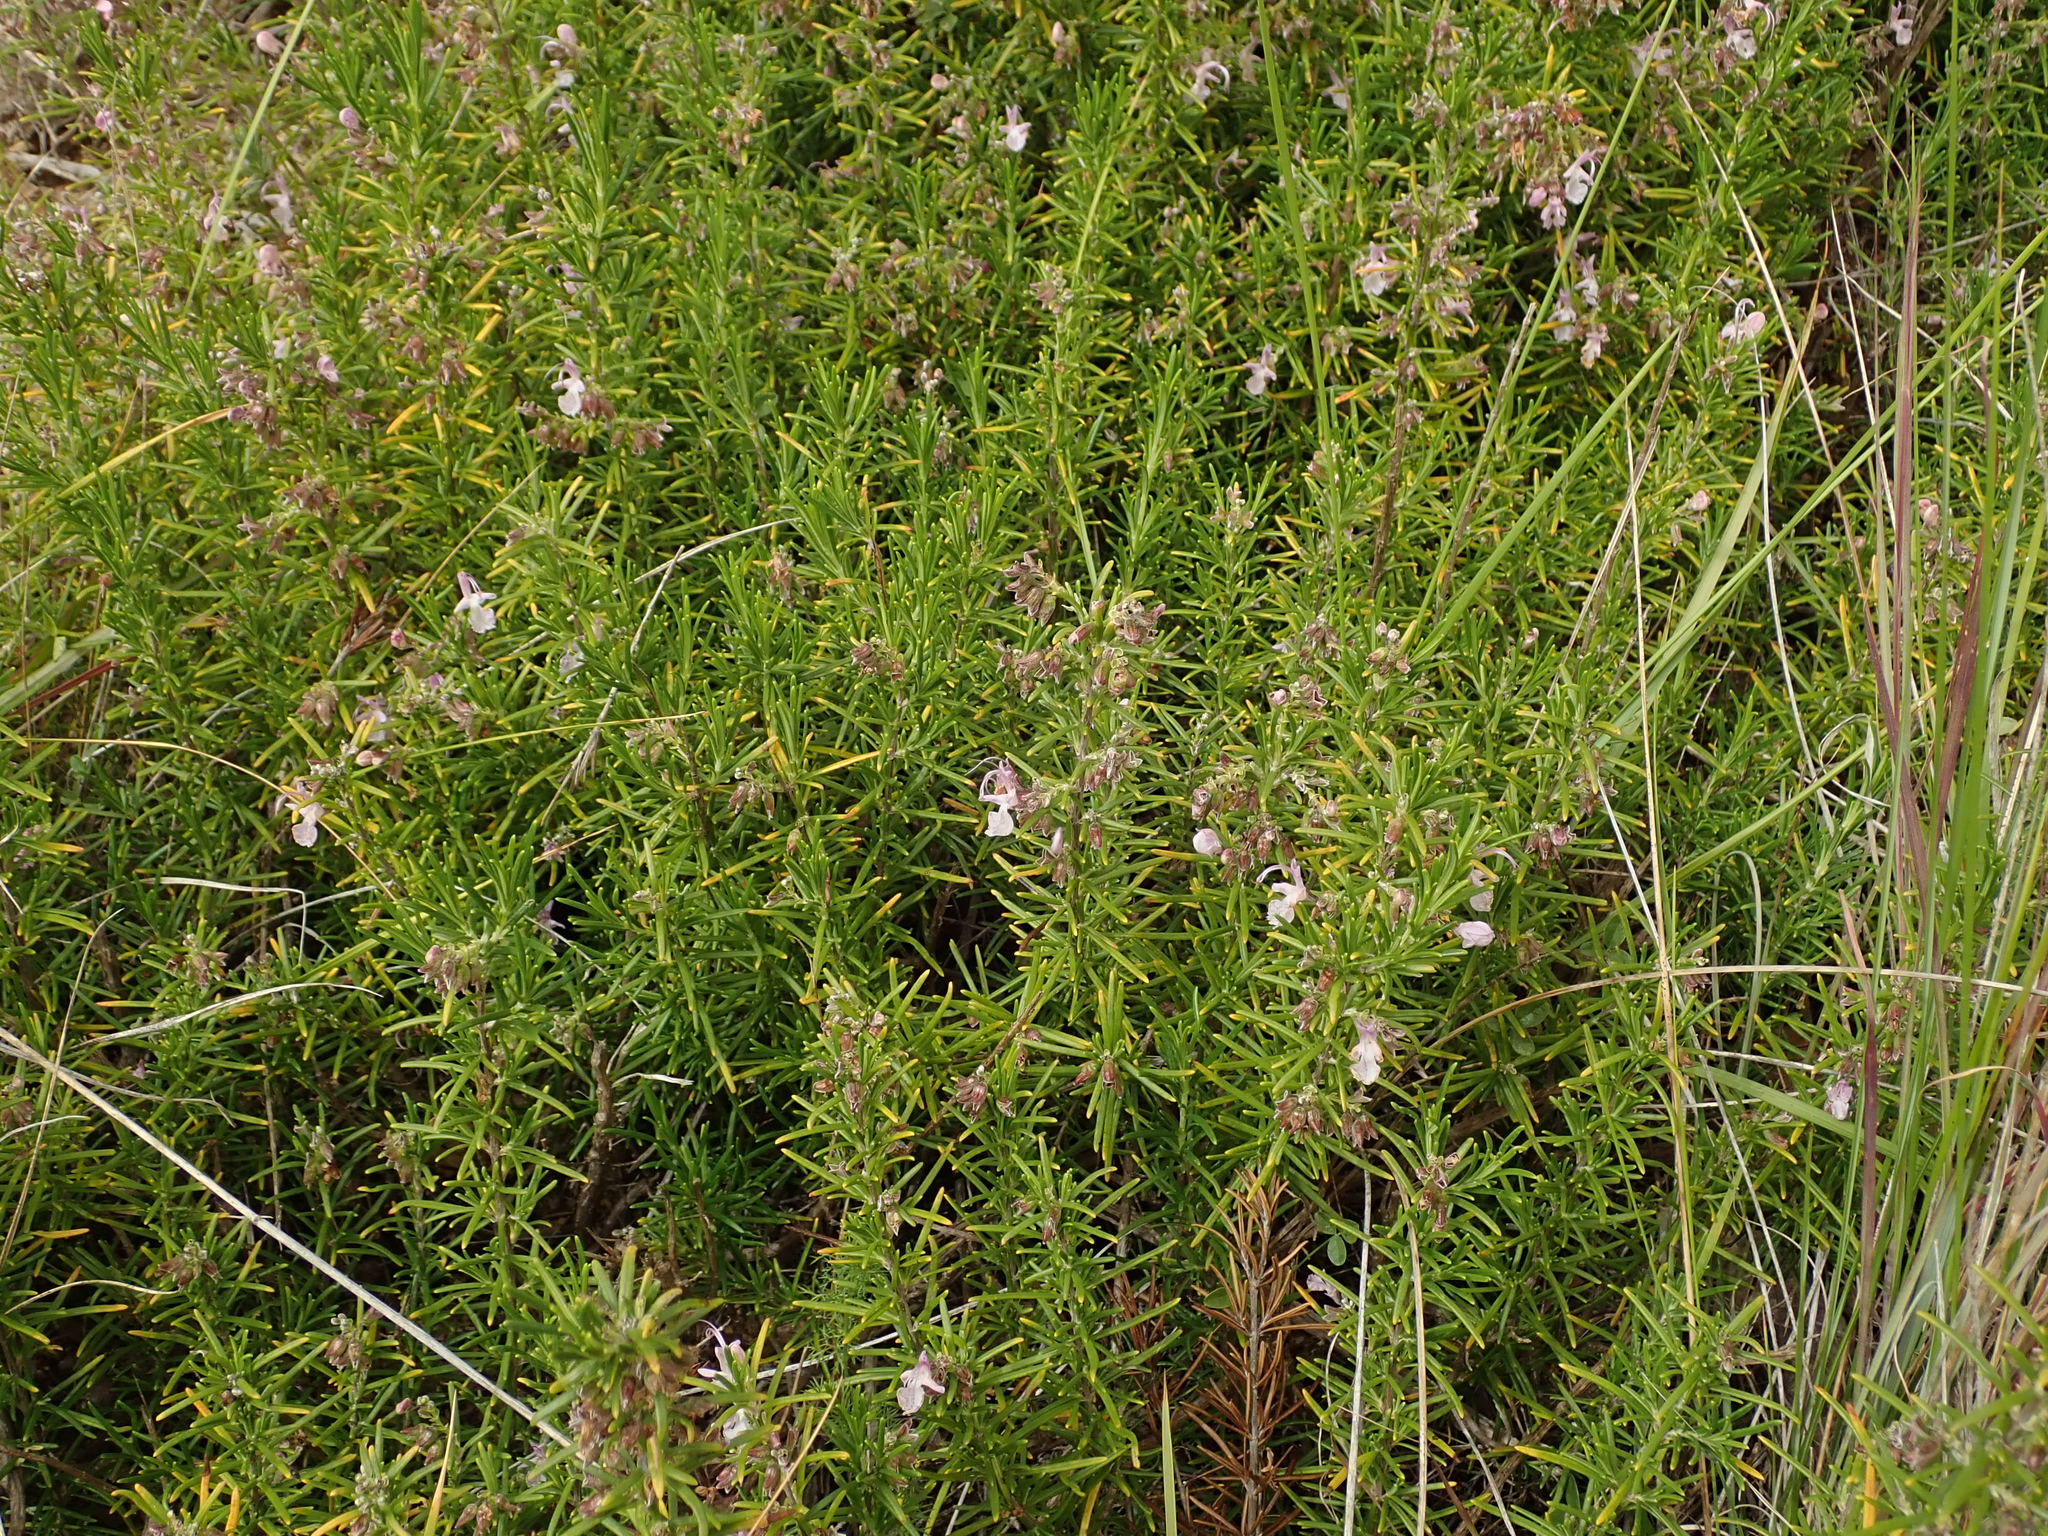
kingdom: Plantae
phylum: Tracheophyta
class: Magnoliopsida
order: Lamiales
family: Lamiaceae
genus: Salvia
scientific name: Salvia rosmarinus
